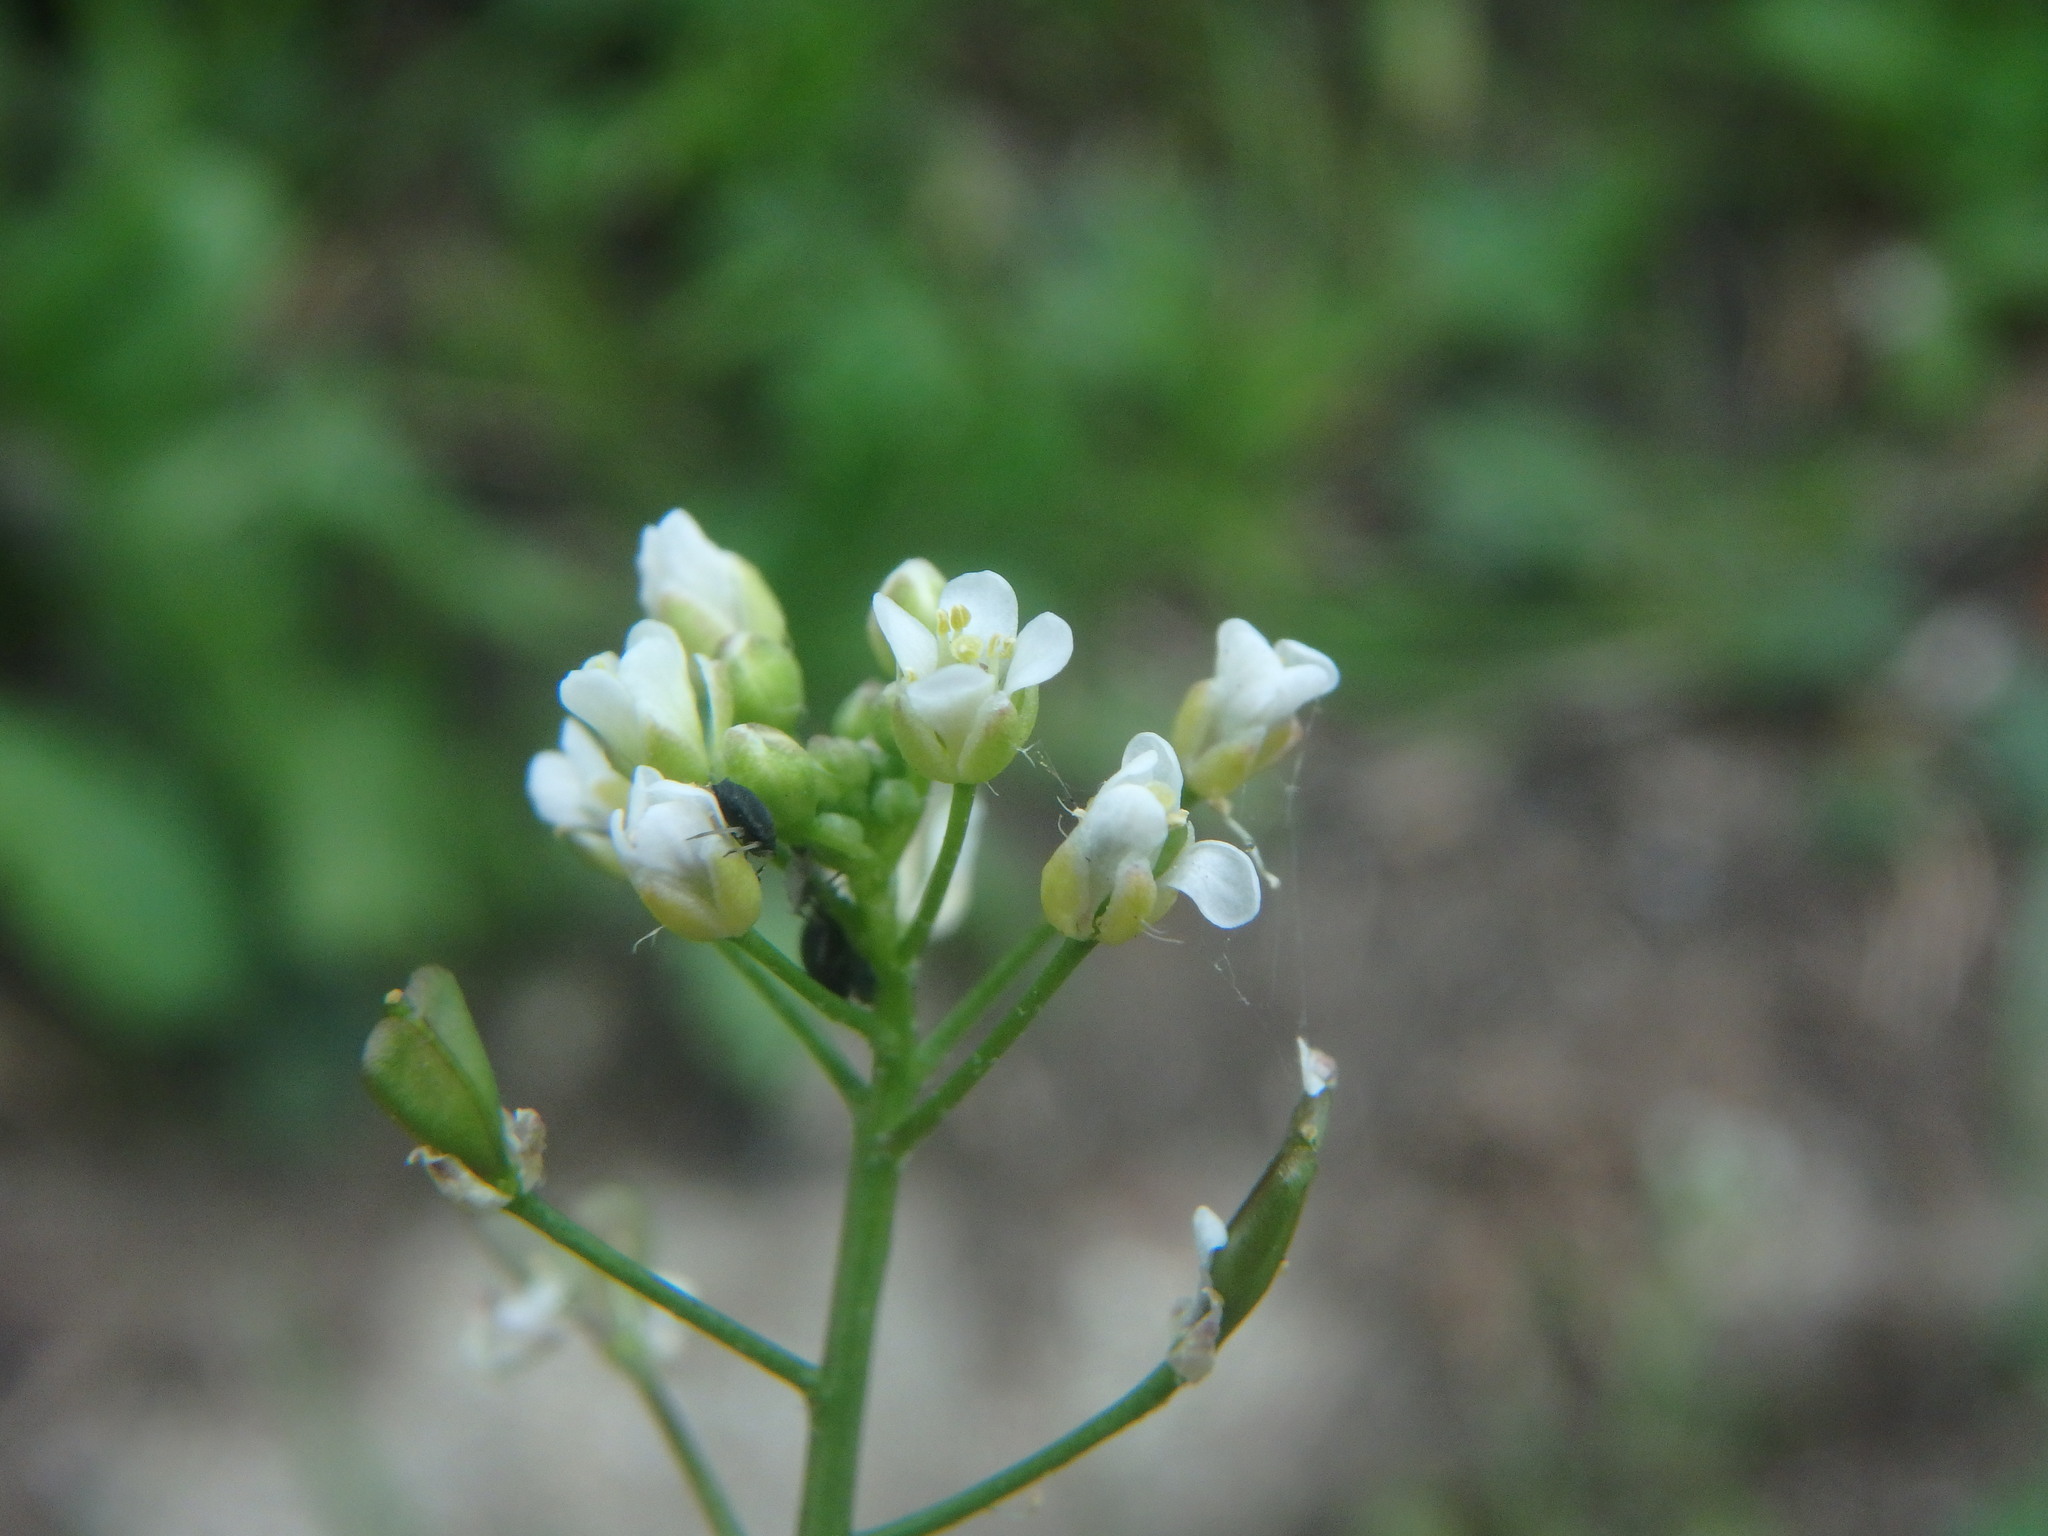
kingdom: Plantae
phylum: Tracheophyta
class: Magnoliopsida
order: Brassicales
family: Brassicaceae
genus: Capsella
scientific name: Capsella bursa-pastoris
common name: Shepherd's purse
